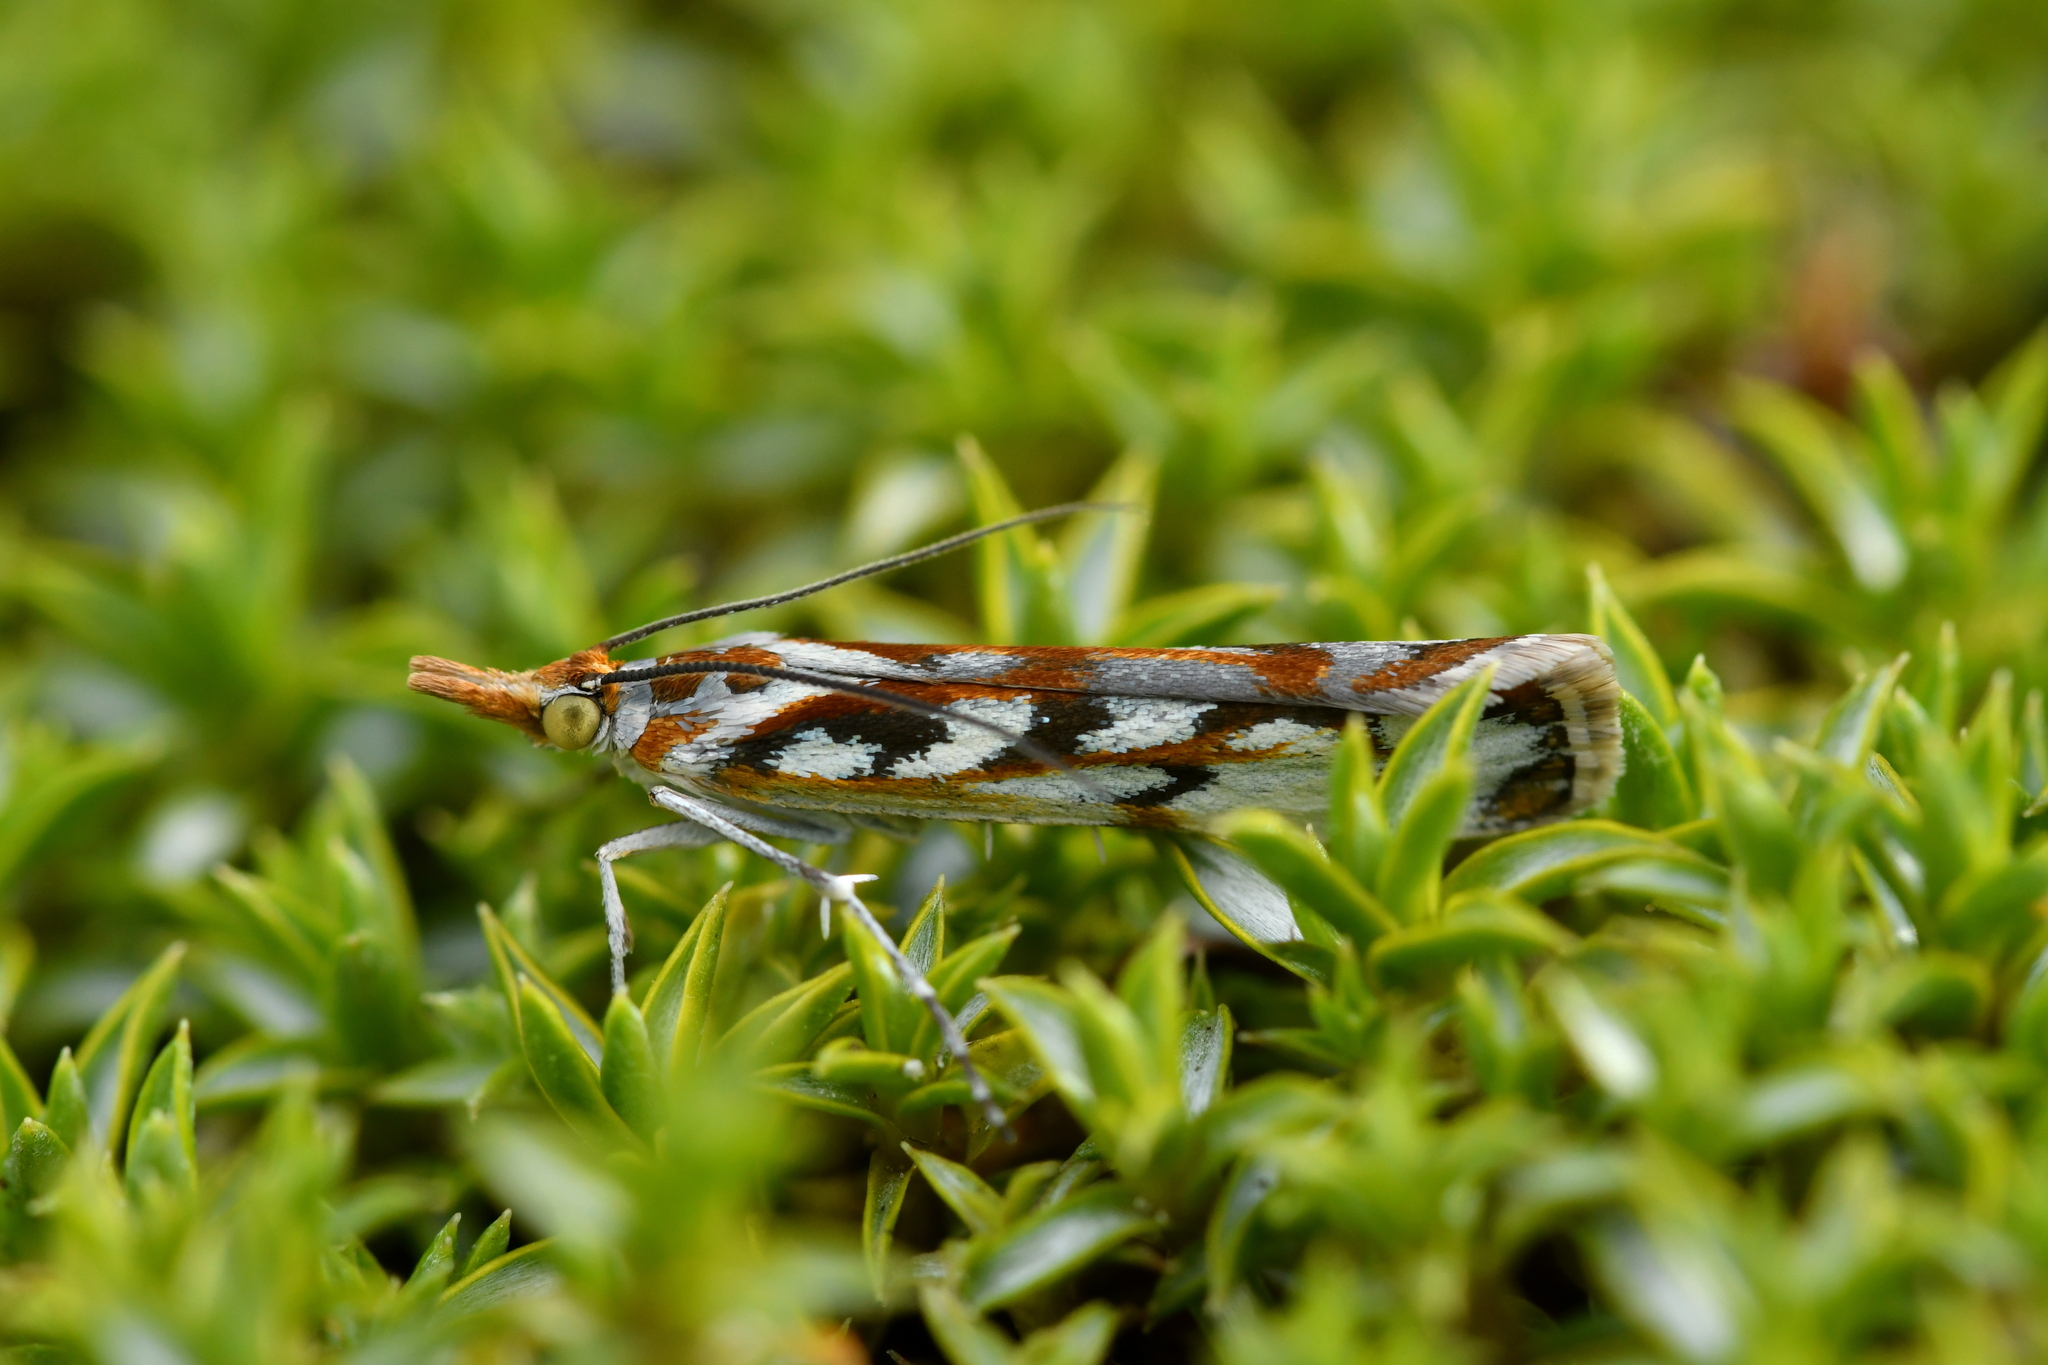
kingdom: Animalia
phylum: Arthropoda
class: Insecta
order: Lepidoptera
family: Crambidae
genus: Orocrambus
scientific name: Orocrambus xanthogrammus
